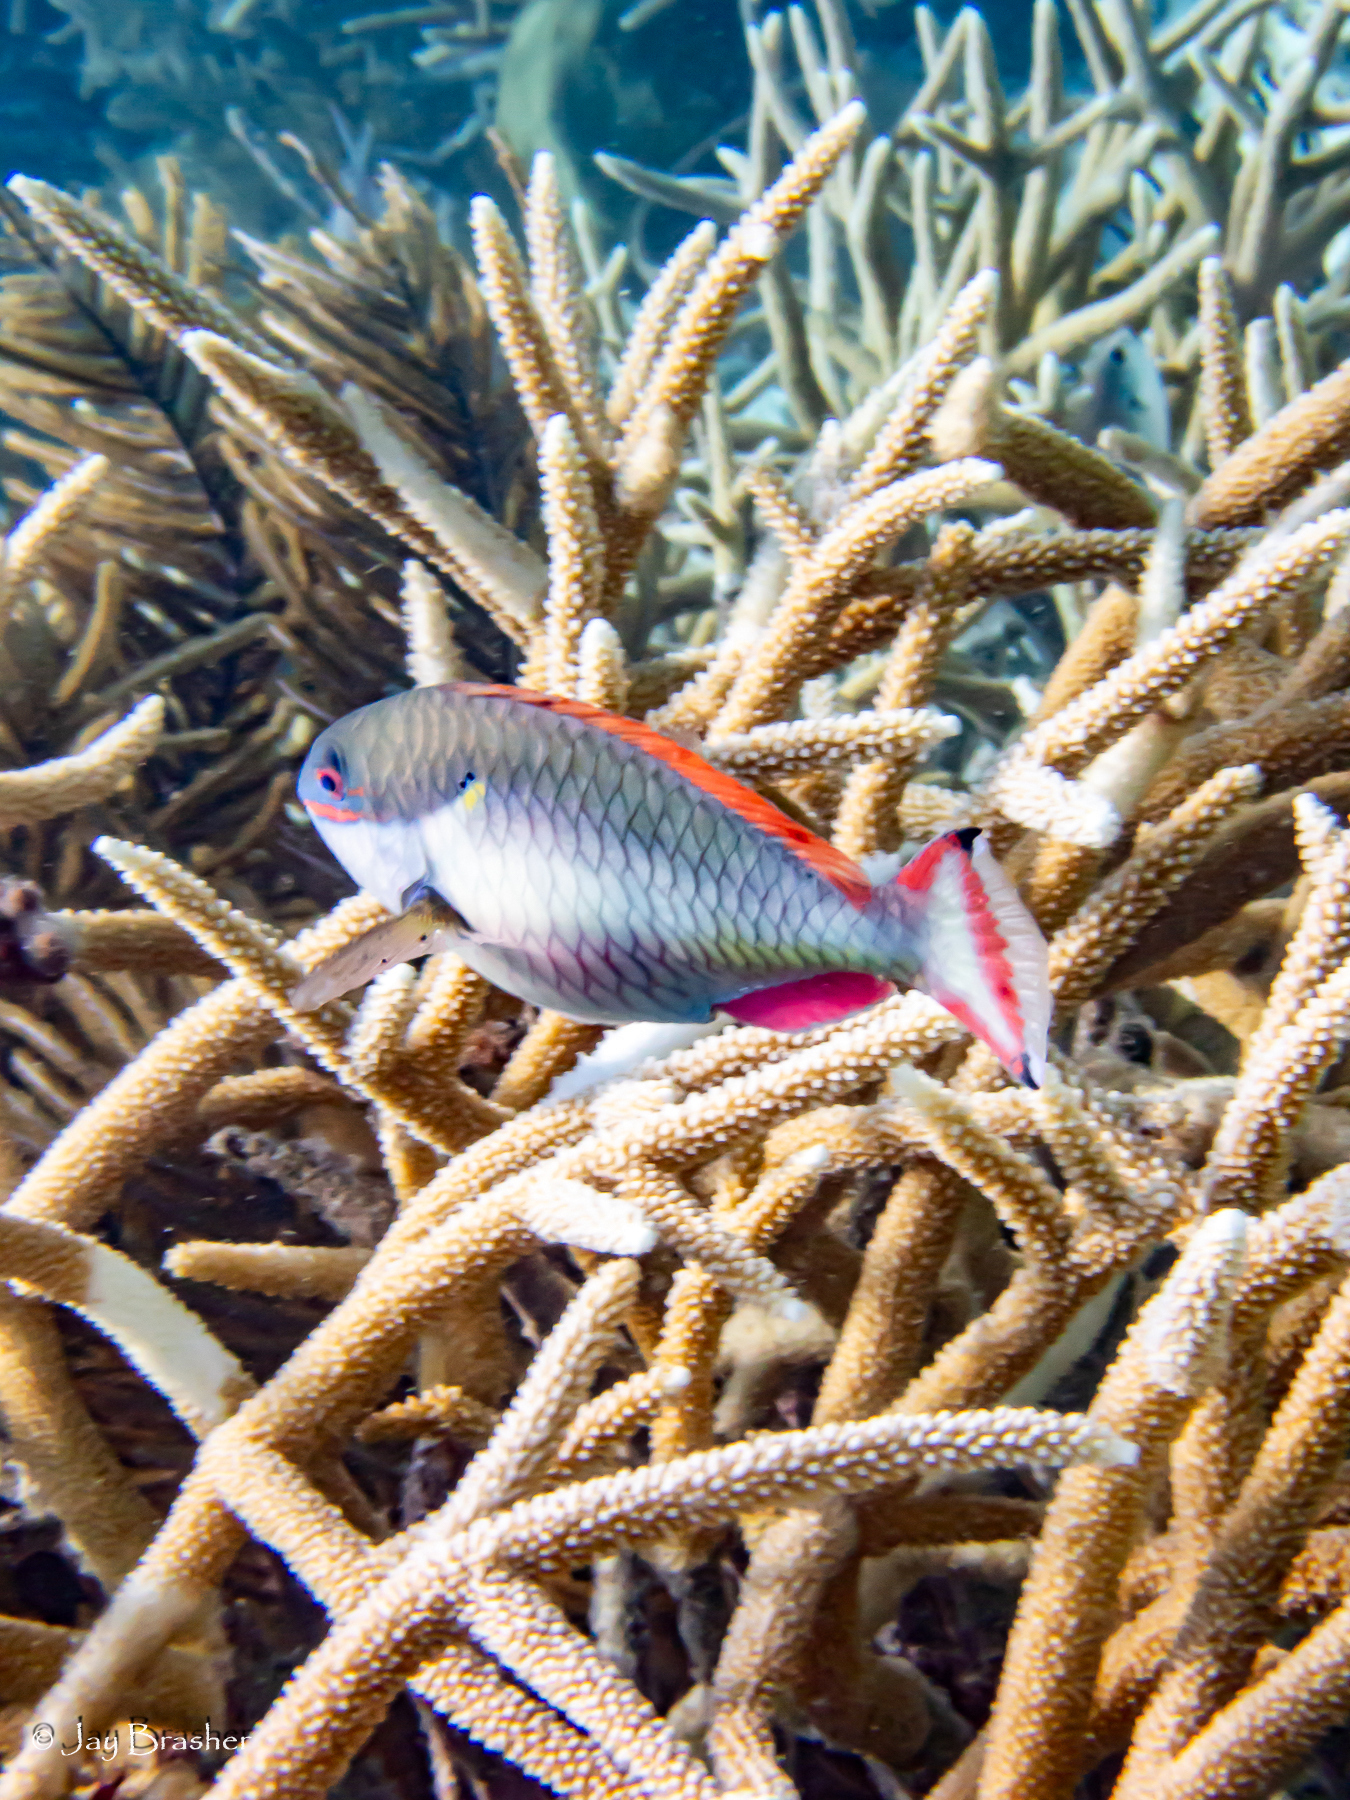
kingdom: Animalia
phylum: Chordata
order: Perciformes
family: Scaridae
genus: Sparisoma
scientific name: Sparisoma aurofrenatum
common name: Redband parrotfish
